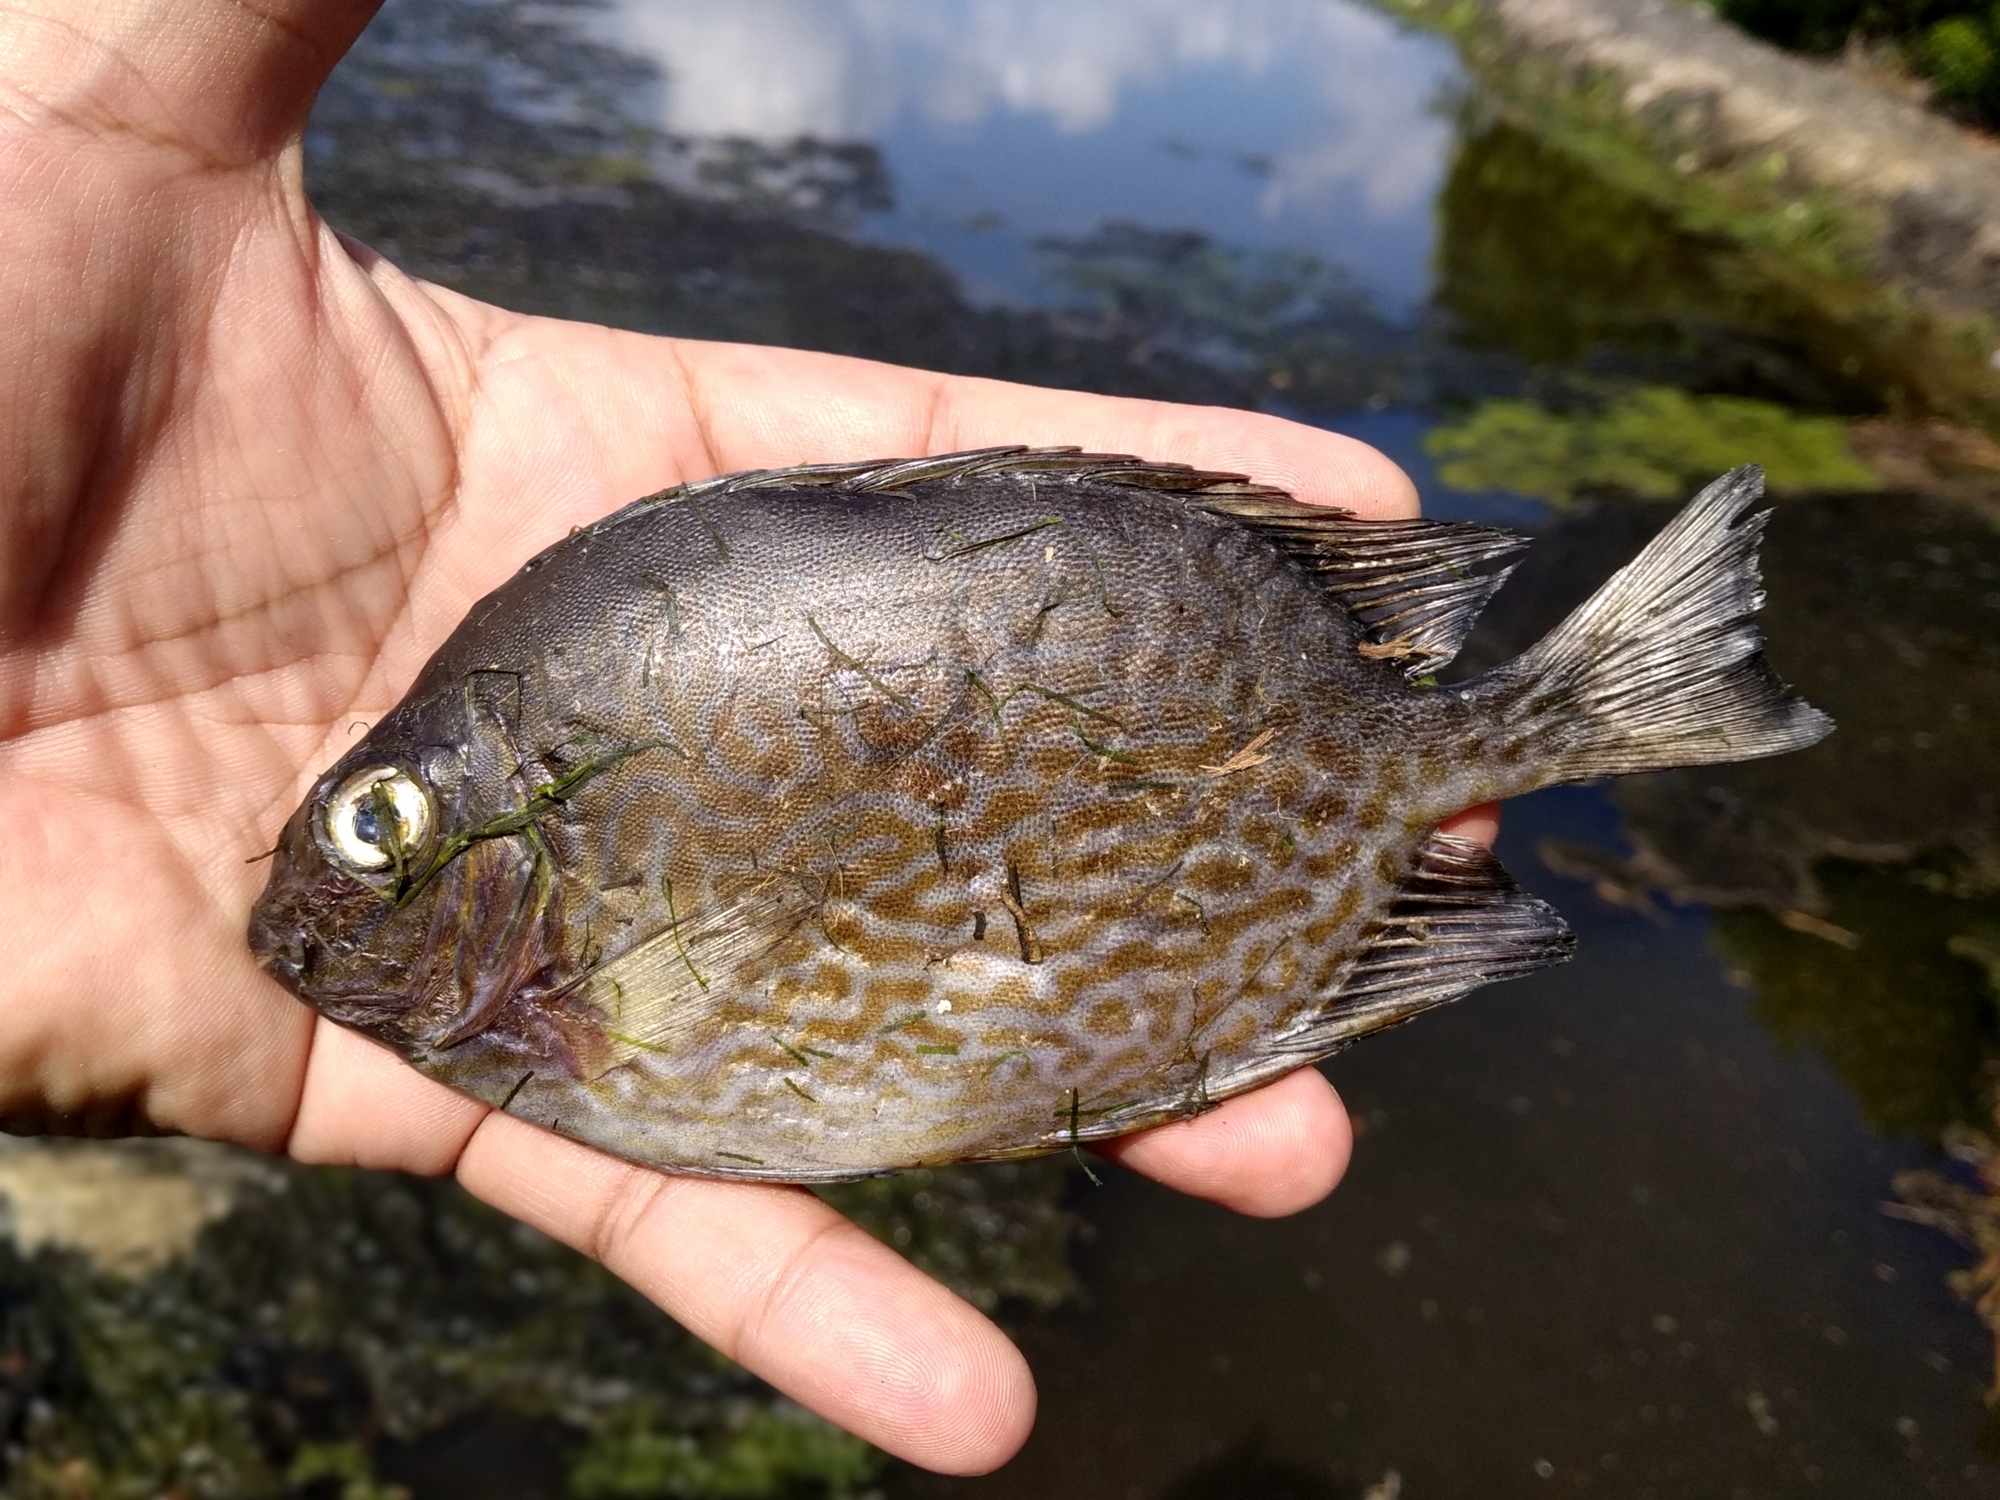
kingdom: Animalia
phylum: Chordata
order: Perciformes
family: Siganidae
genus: Siganus
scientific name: Siganus vermiculatus
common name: Vermiculated spinefoot
